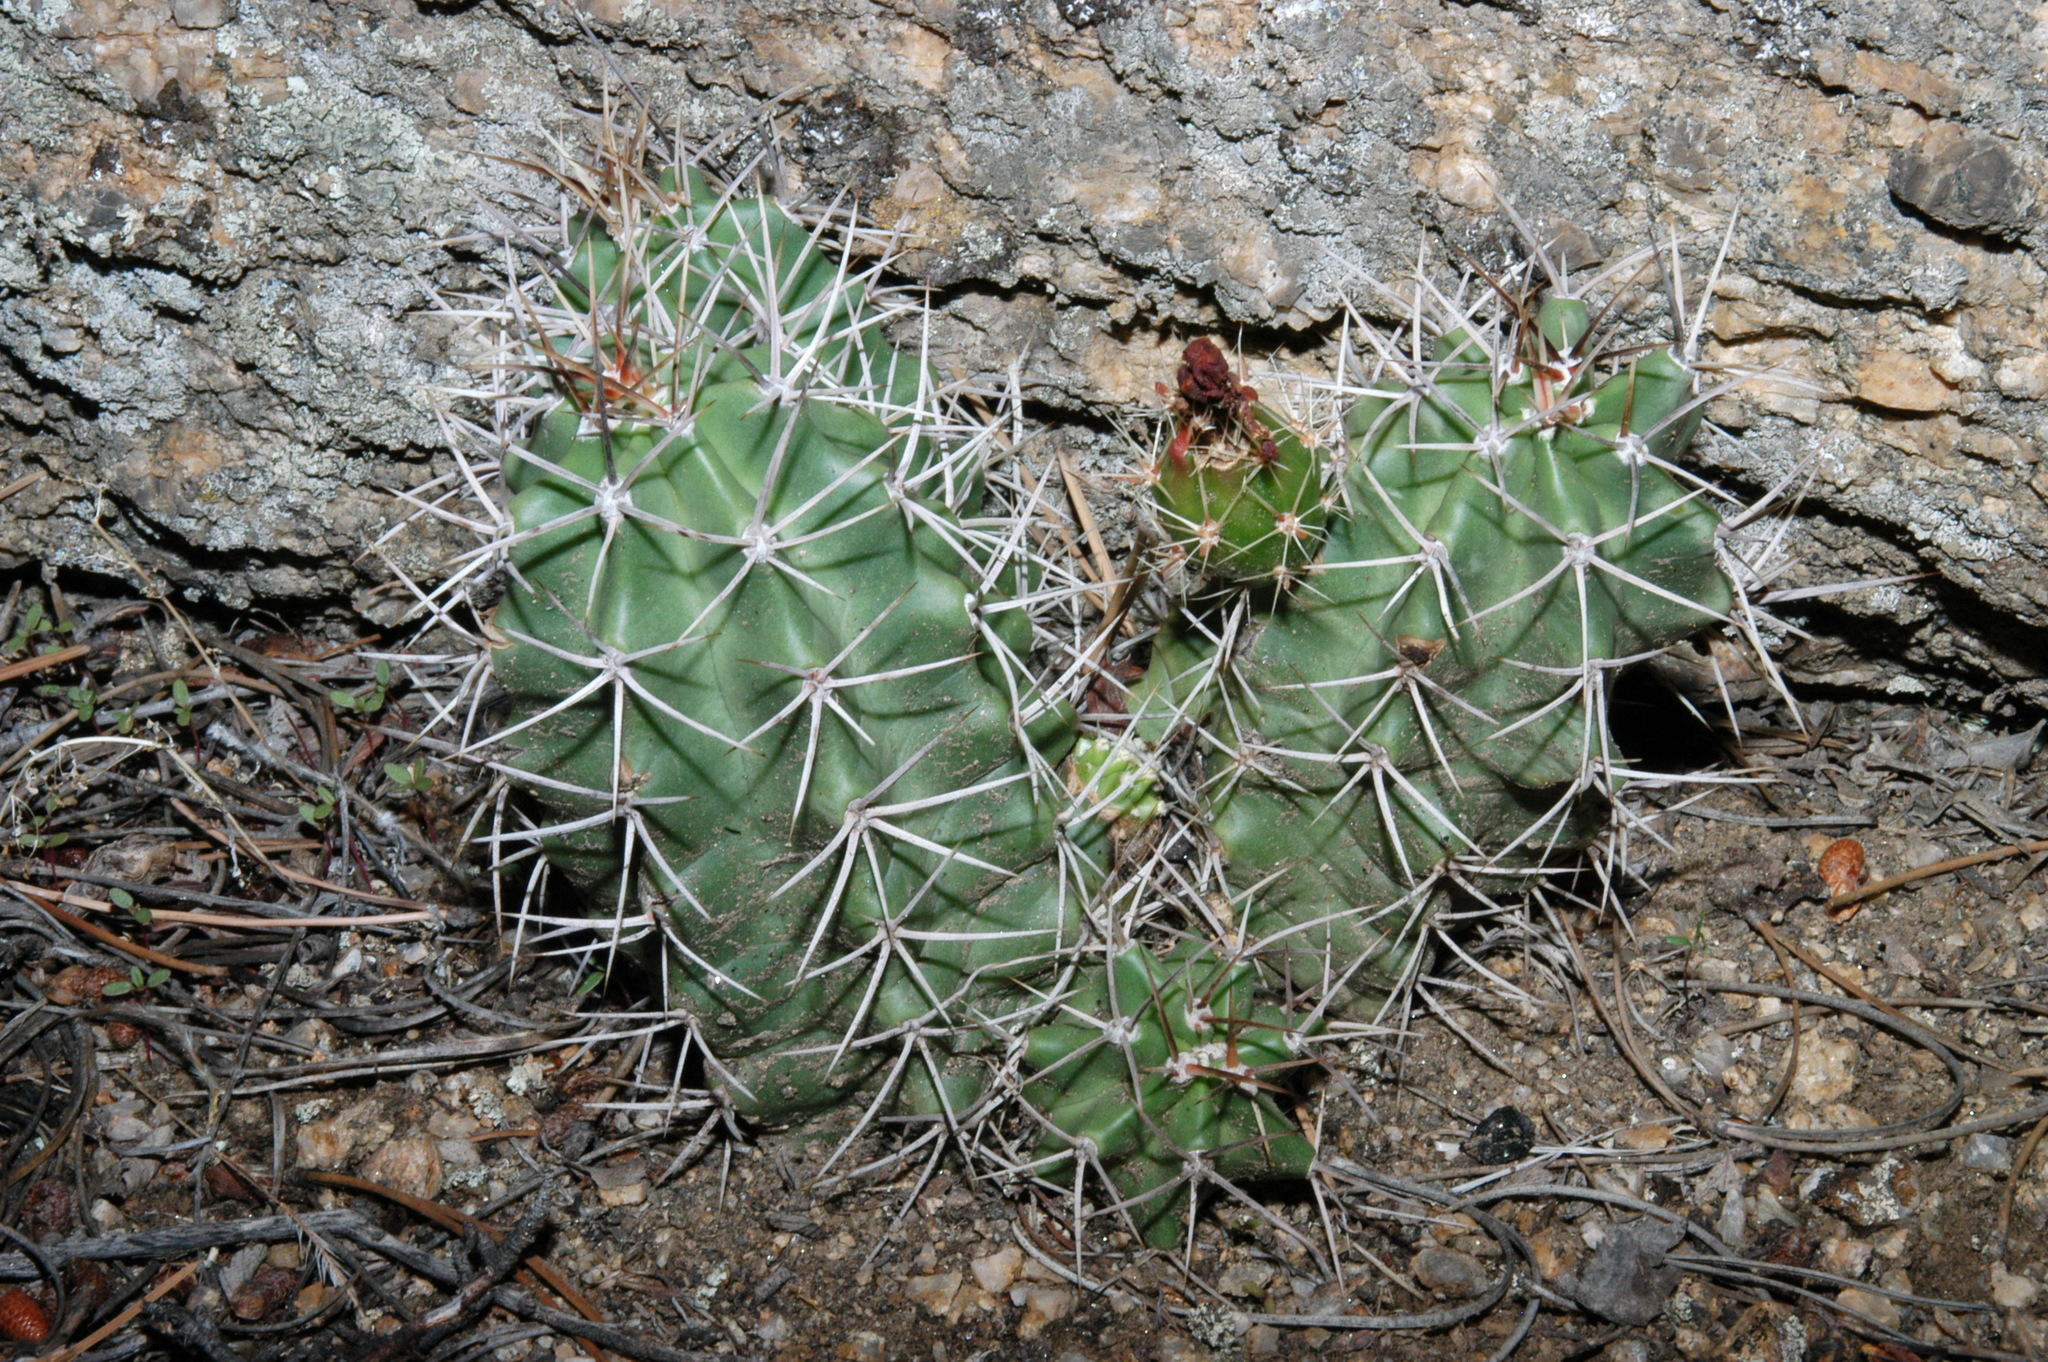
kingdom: Plantae
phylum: Tracheophyta
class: Magnoliopsida
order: Caryophyllales
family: Cactaceae
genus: Echinocereus
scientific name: Echinocereus triglochidiatus
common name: Claretcup hedgehog
